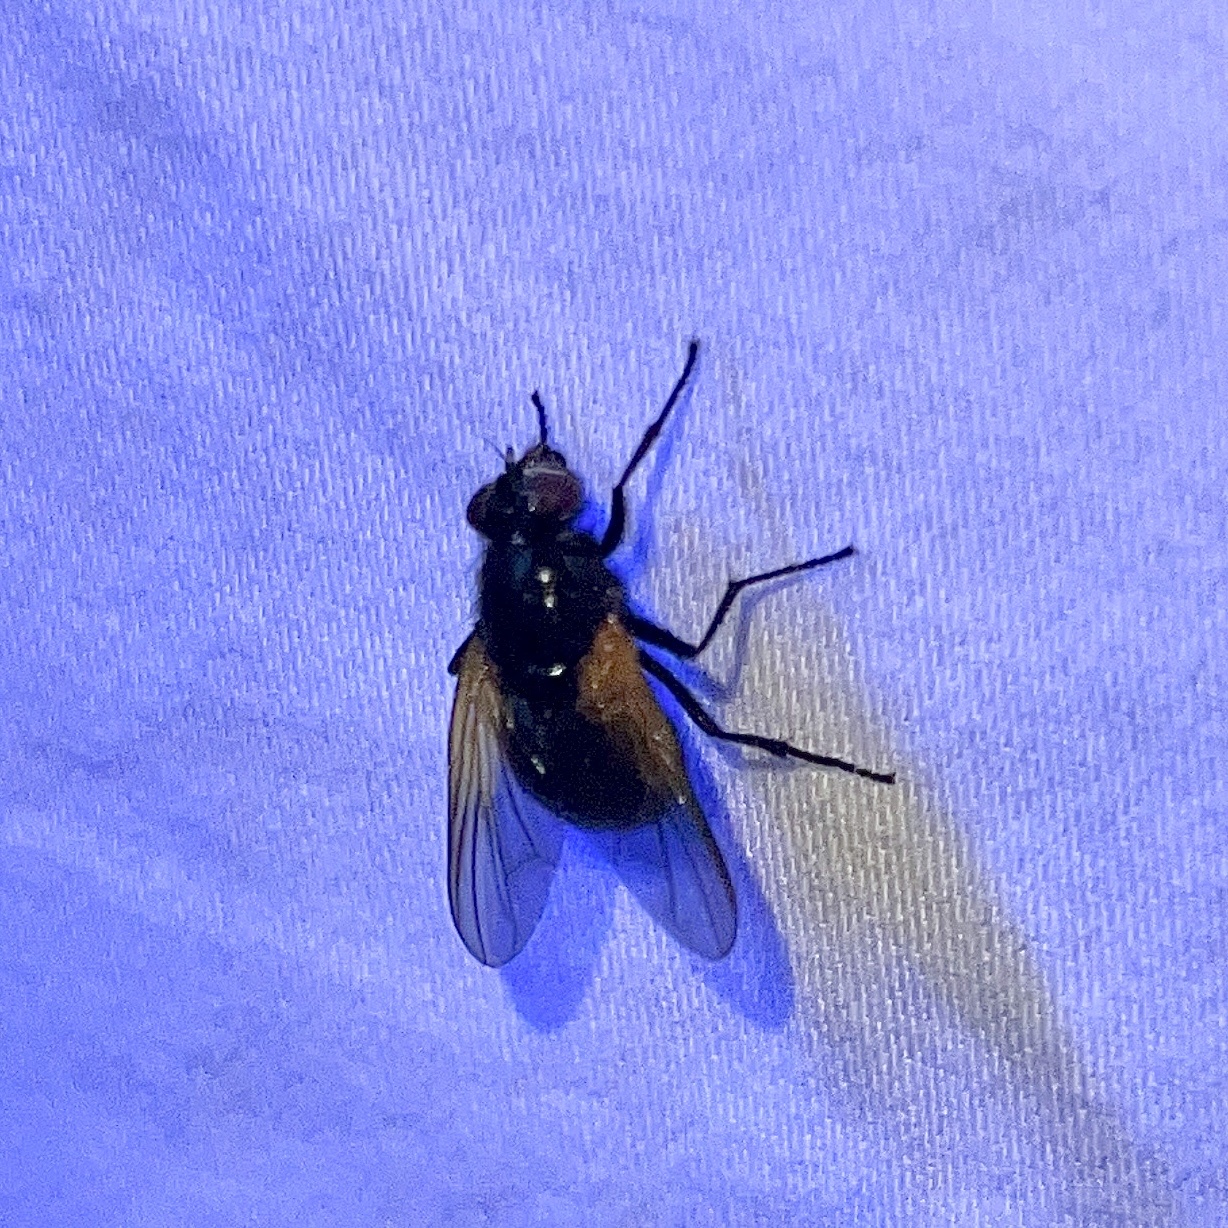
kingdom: Animalia
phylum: Arthropoda
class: Insecta
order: Diptera
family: Muscidae
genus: Mesembrina
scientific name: Mesembrina latreillii
